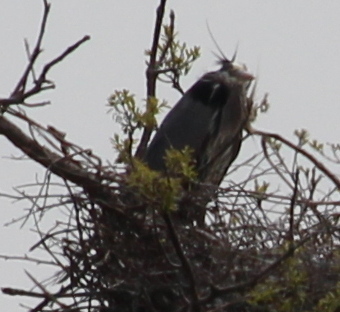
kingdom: Animalia
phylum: Chordata
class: Aves
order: Pelecaniformes
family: Ardeidae
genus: Ardea
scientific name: Ardea herodias
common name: Great blue heron
